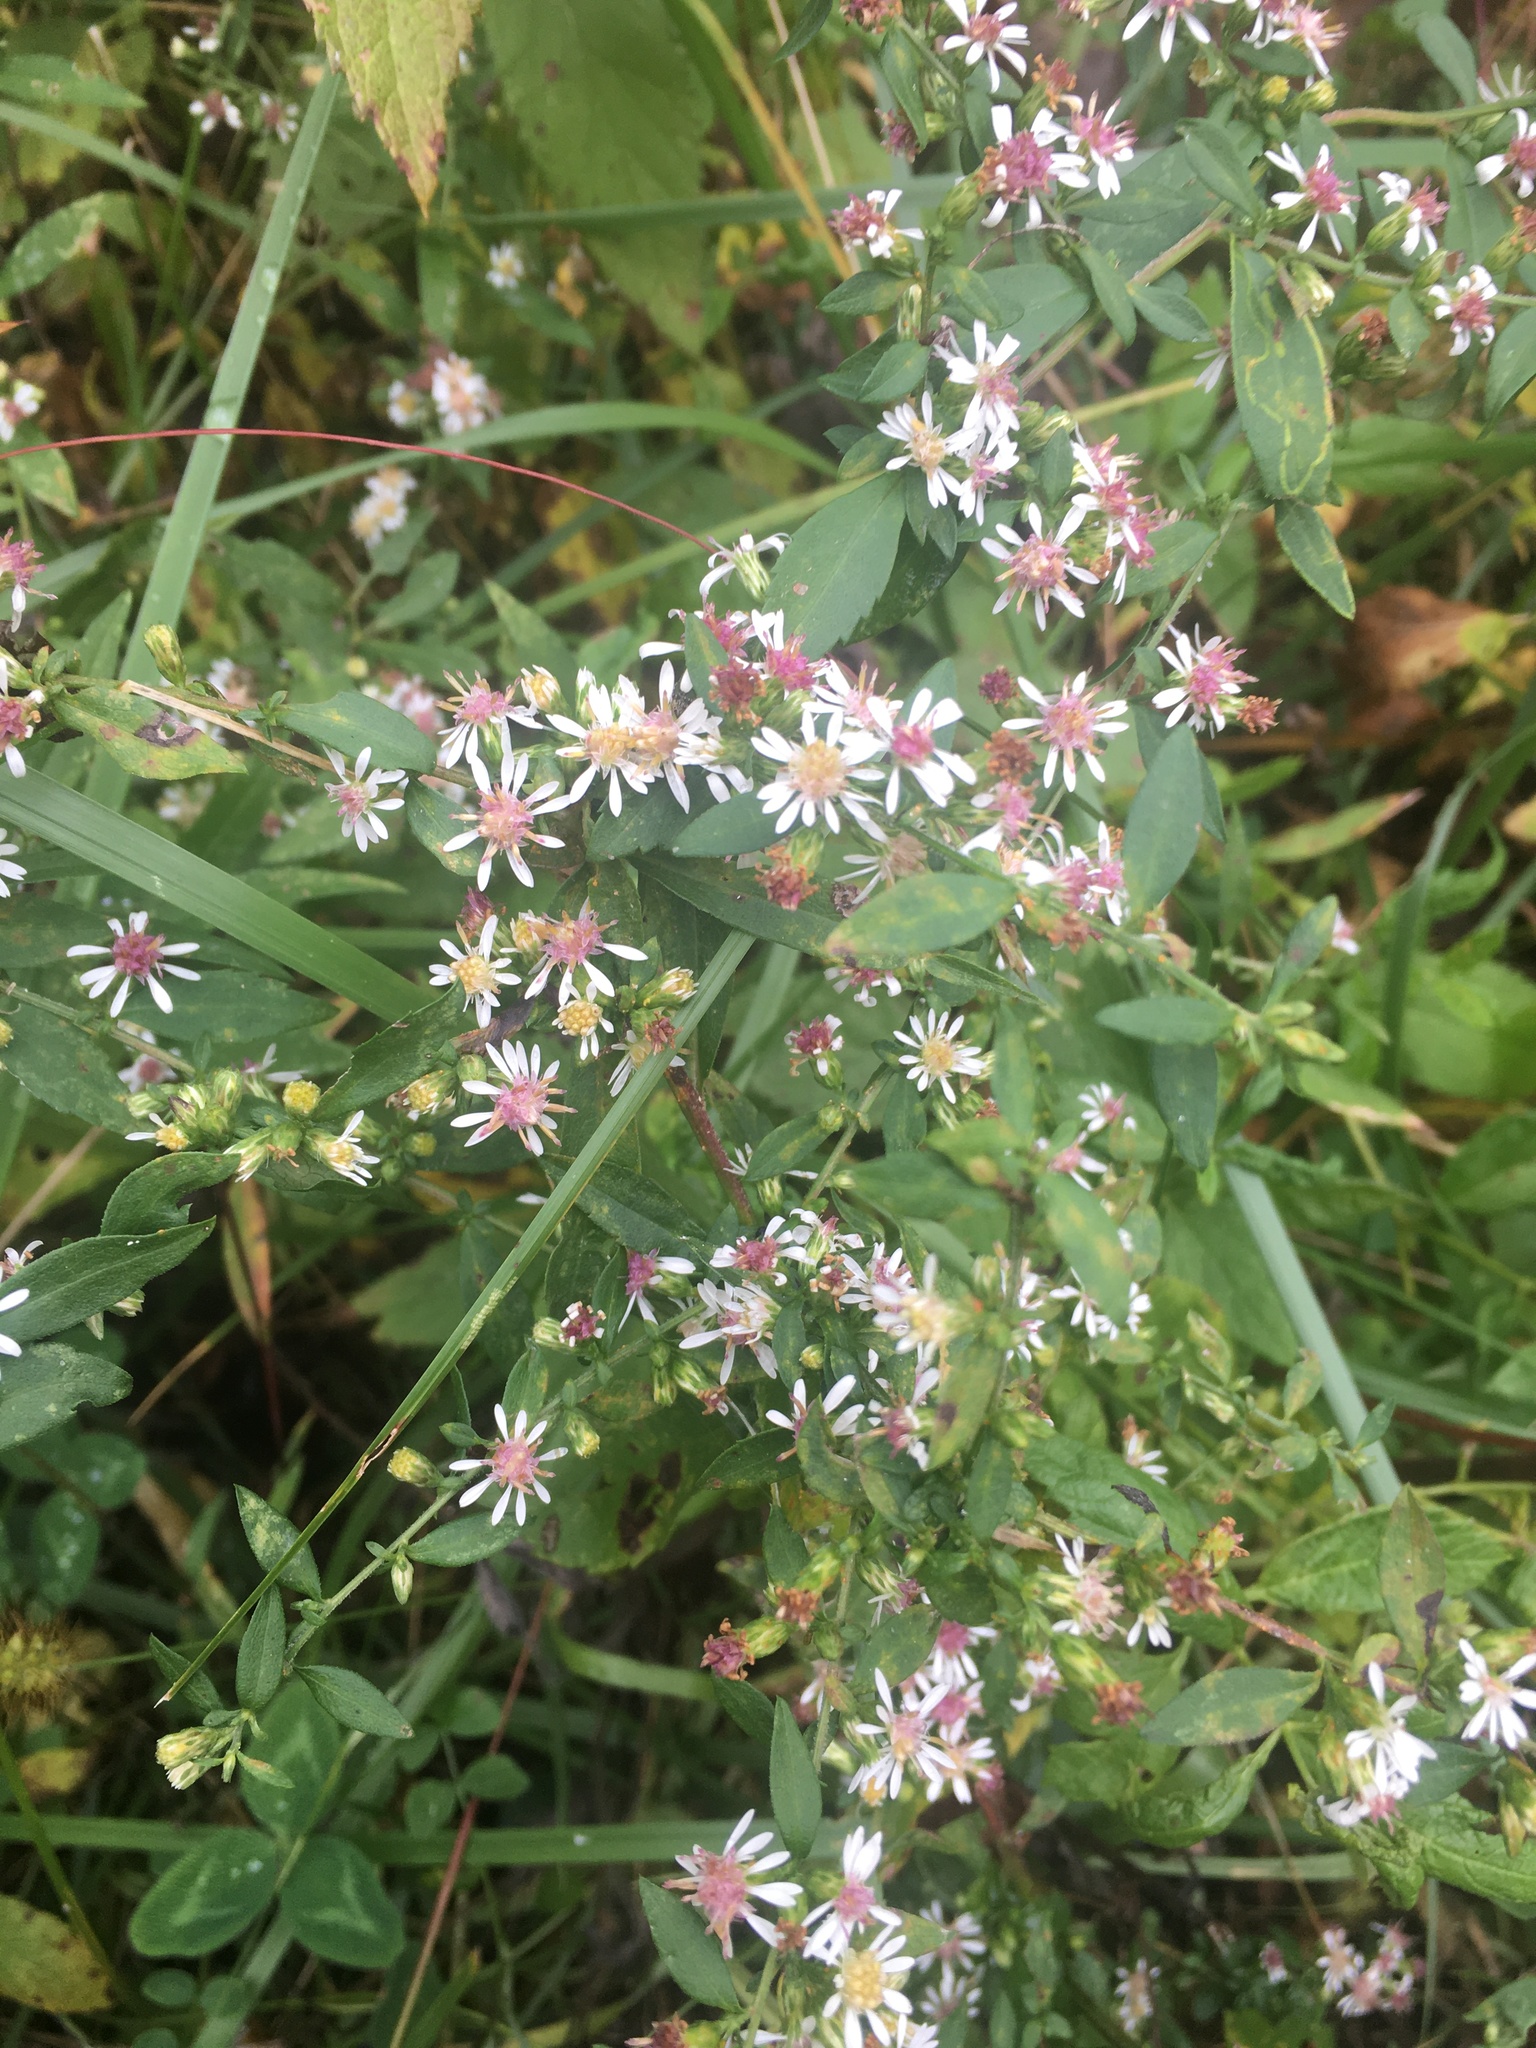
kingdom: Plantae
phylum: Tracheophyta
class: Magnoliopsida
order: Asterales
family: Asteraceae
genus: Symphyotrichum
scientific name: Symphyotrichum lateriflorum
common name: Calico aster
